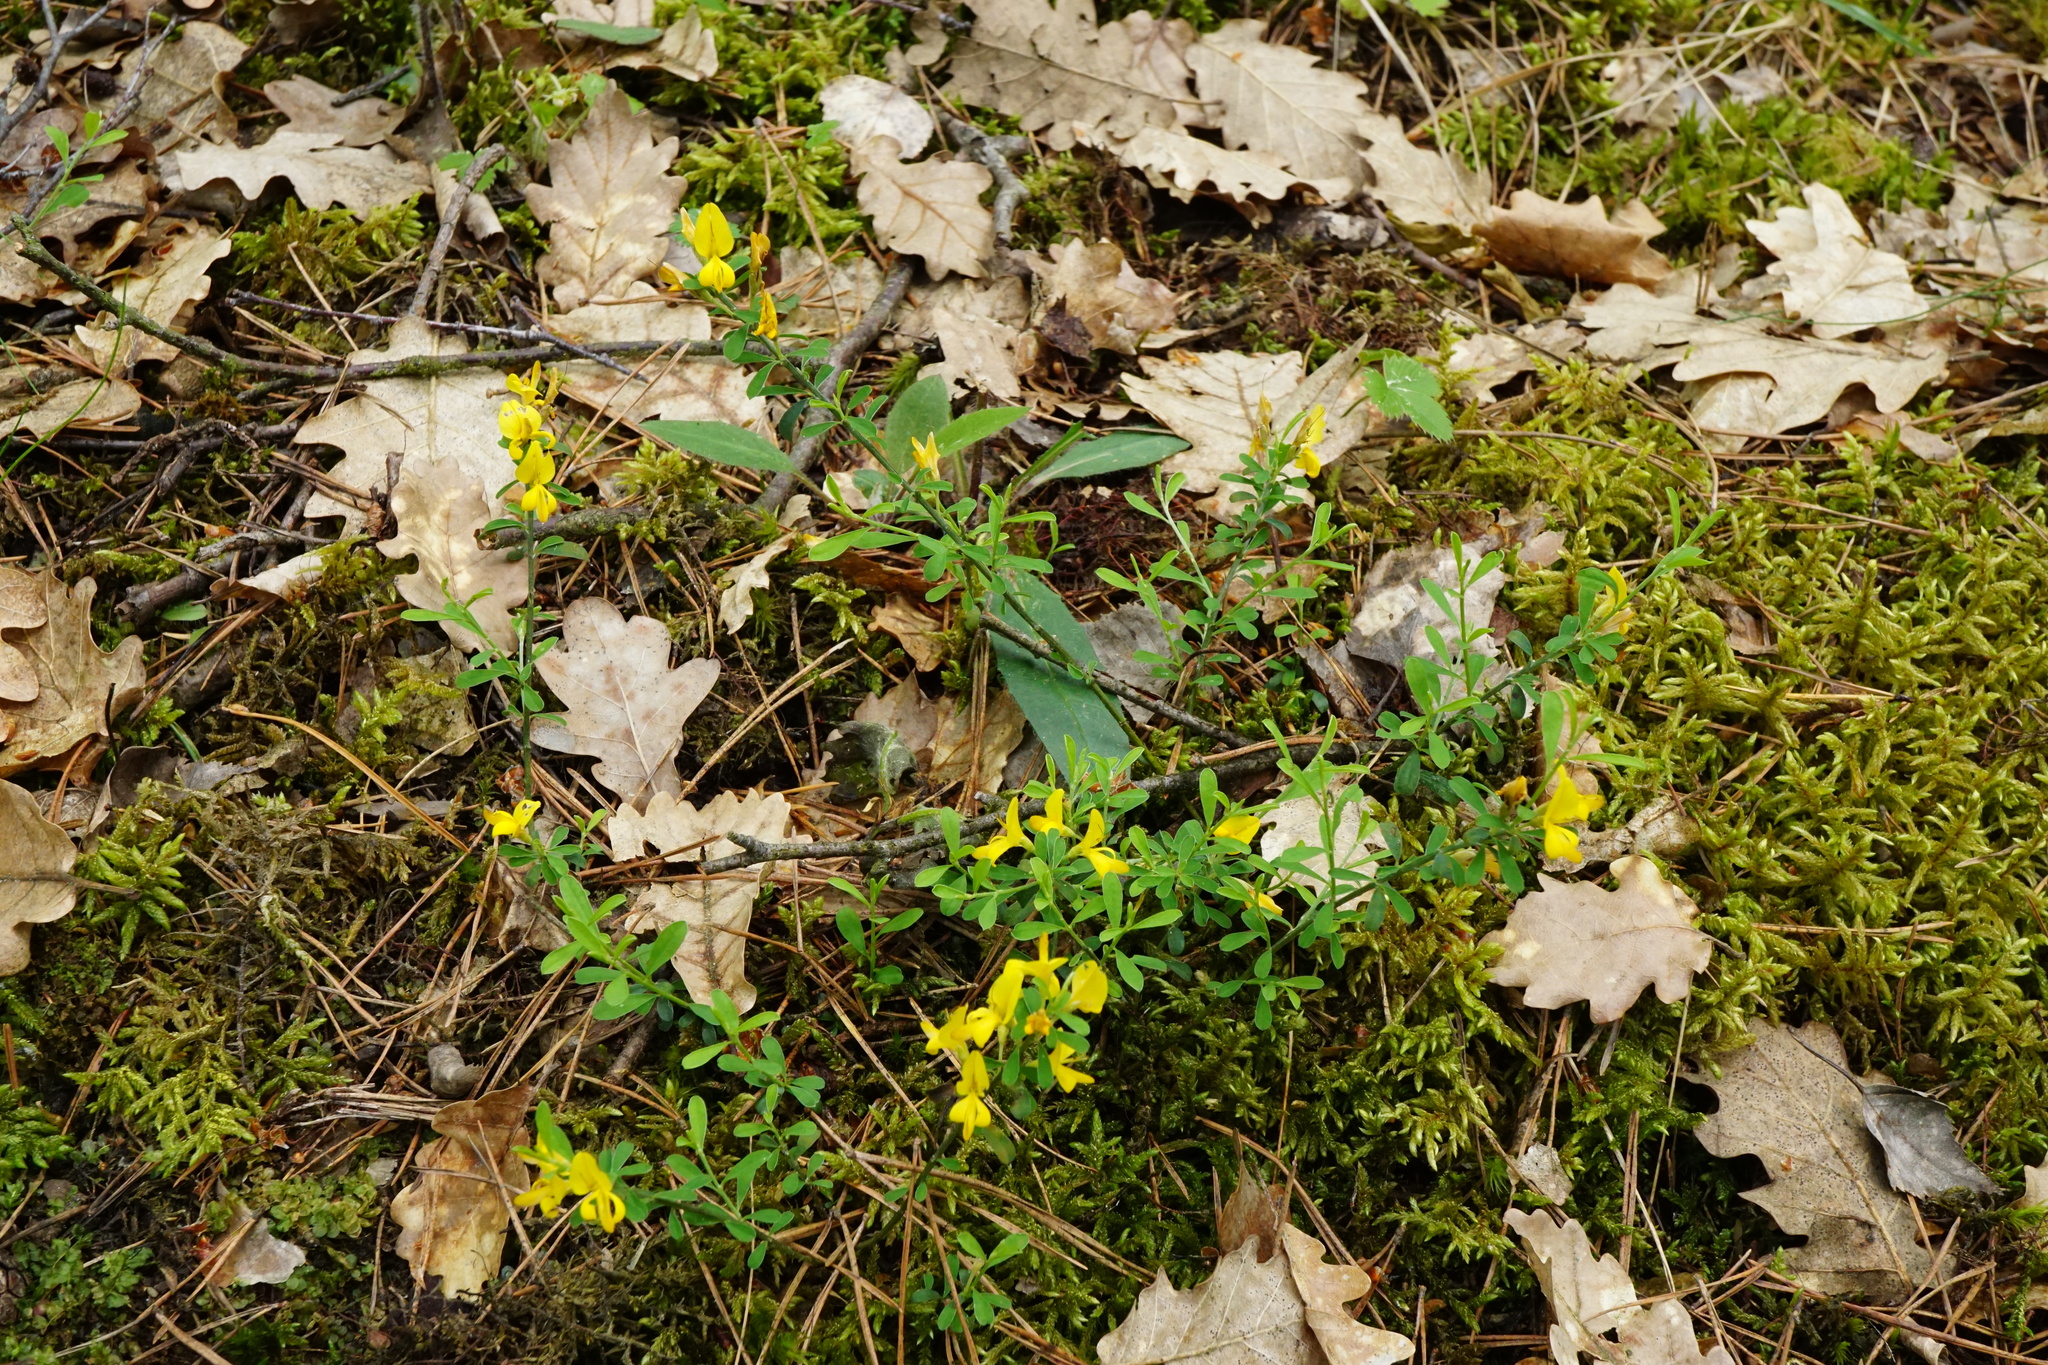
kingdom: Plantae
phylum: Tracheophyta
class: Magnoliopsida
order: Fabales
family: Fabaceae
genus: Genista
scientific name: Genista pilosa
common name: Hairy greenweed
